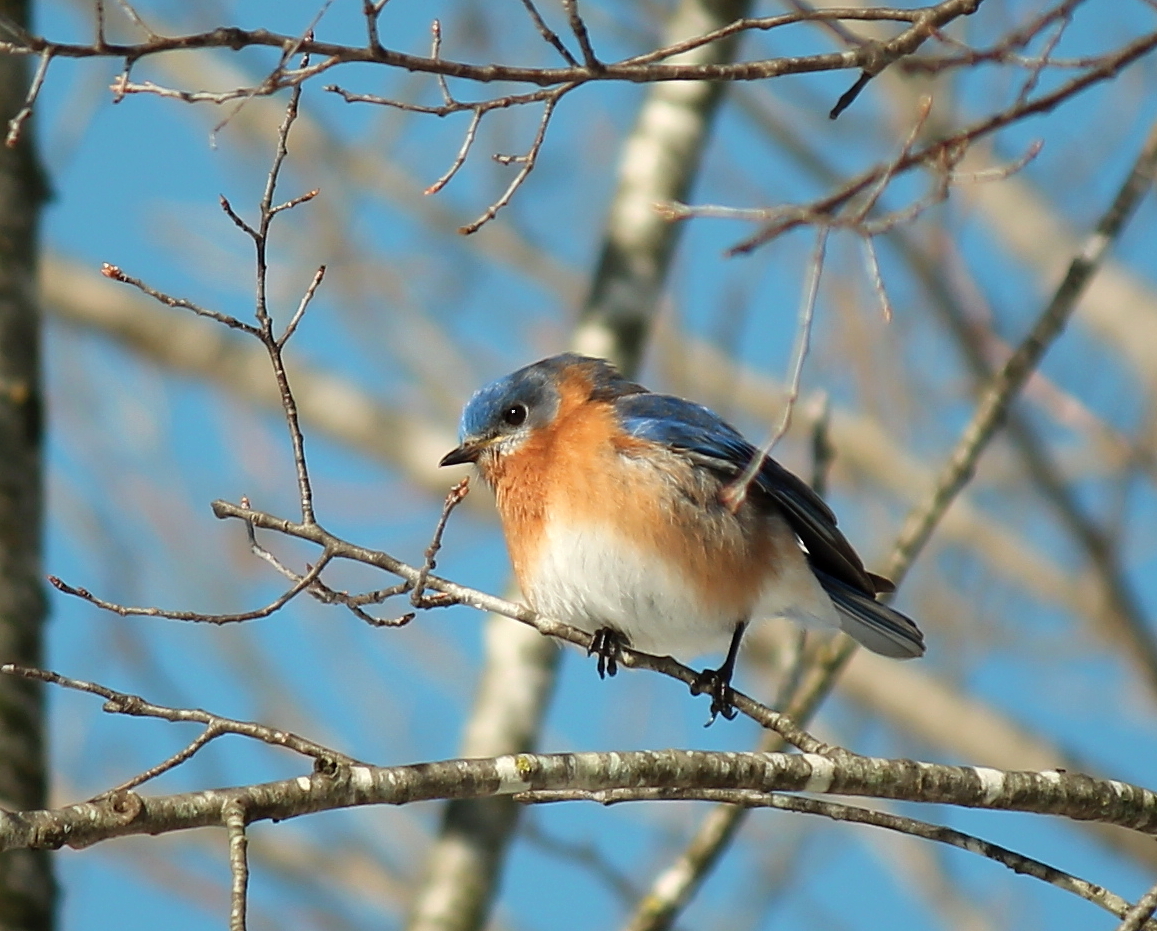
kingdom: Animalia
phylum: Chordata
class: Aves
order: Passeriformes
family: Turdidae
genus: Sialia
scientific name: Sialia sialis
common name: Eastern bluebird
